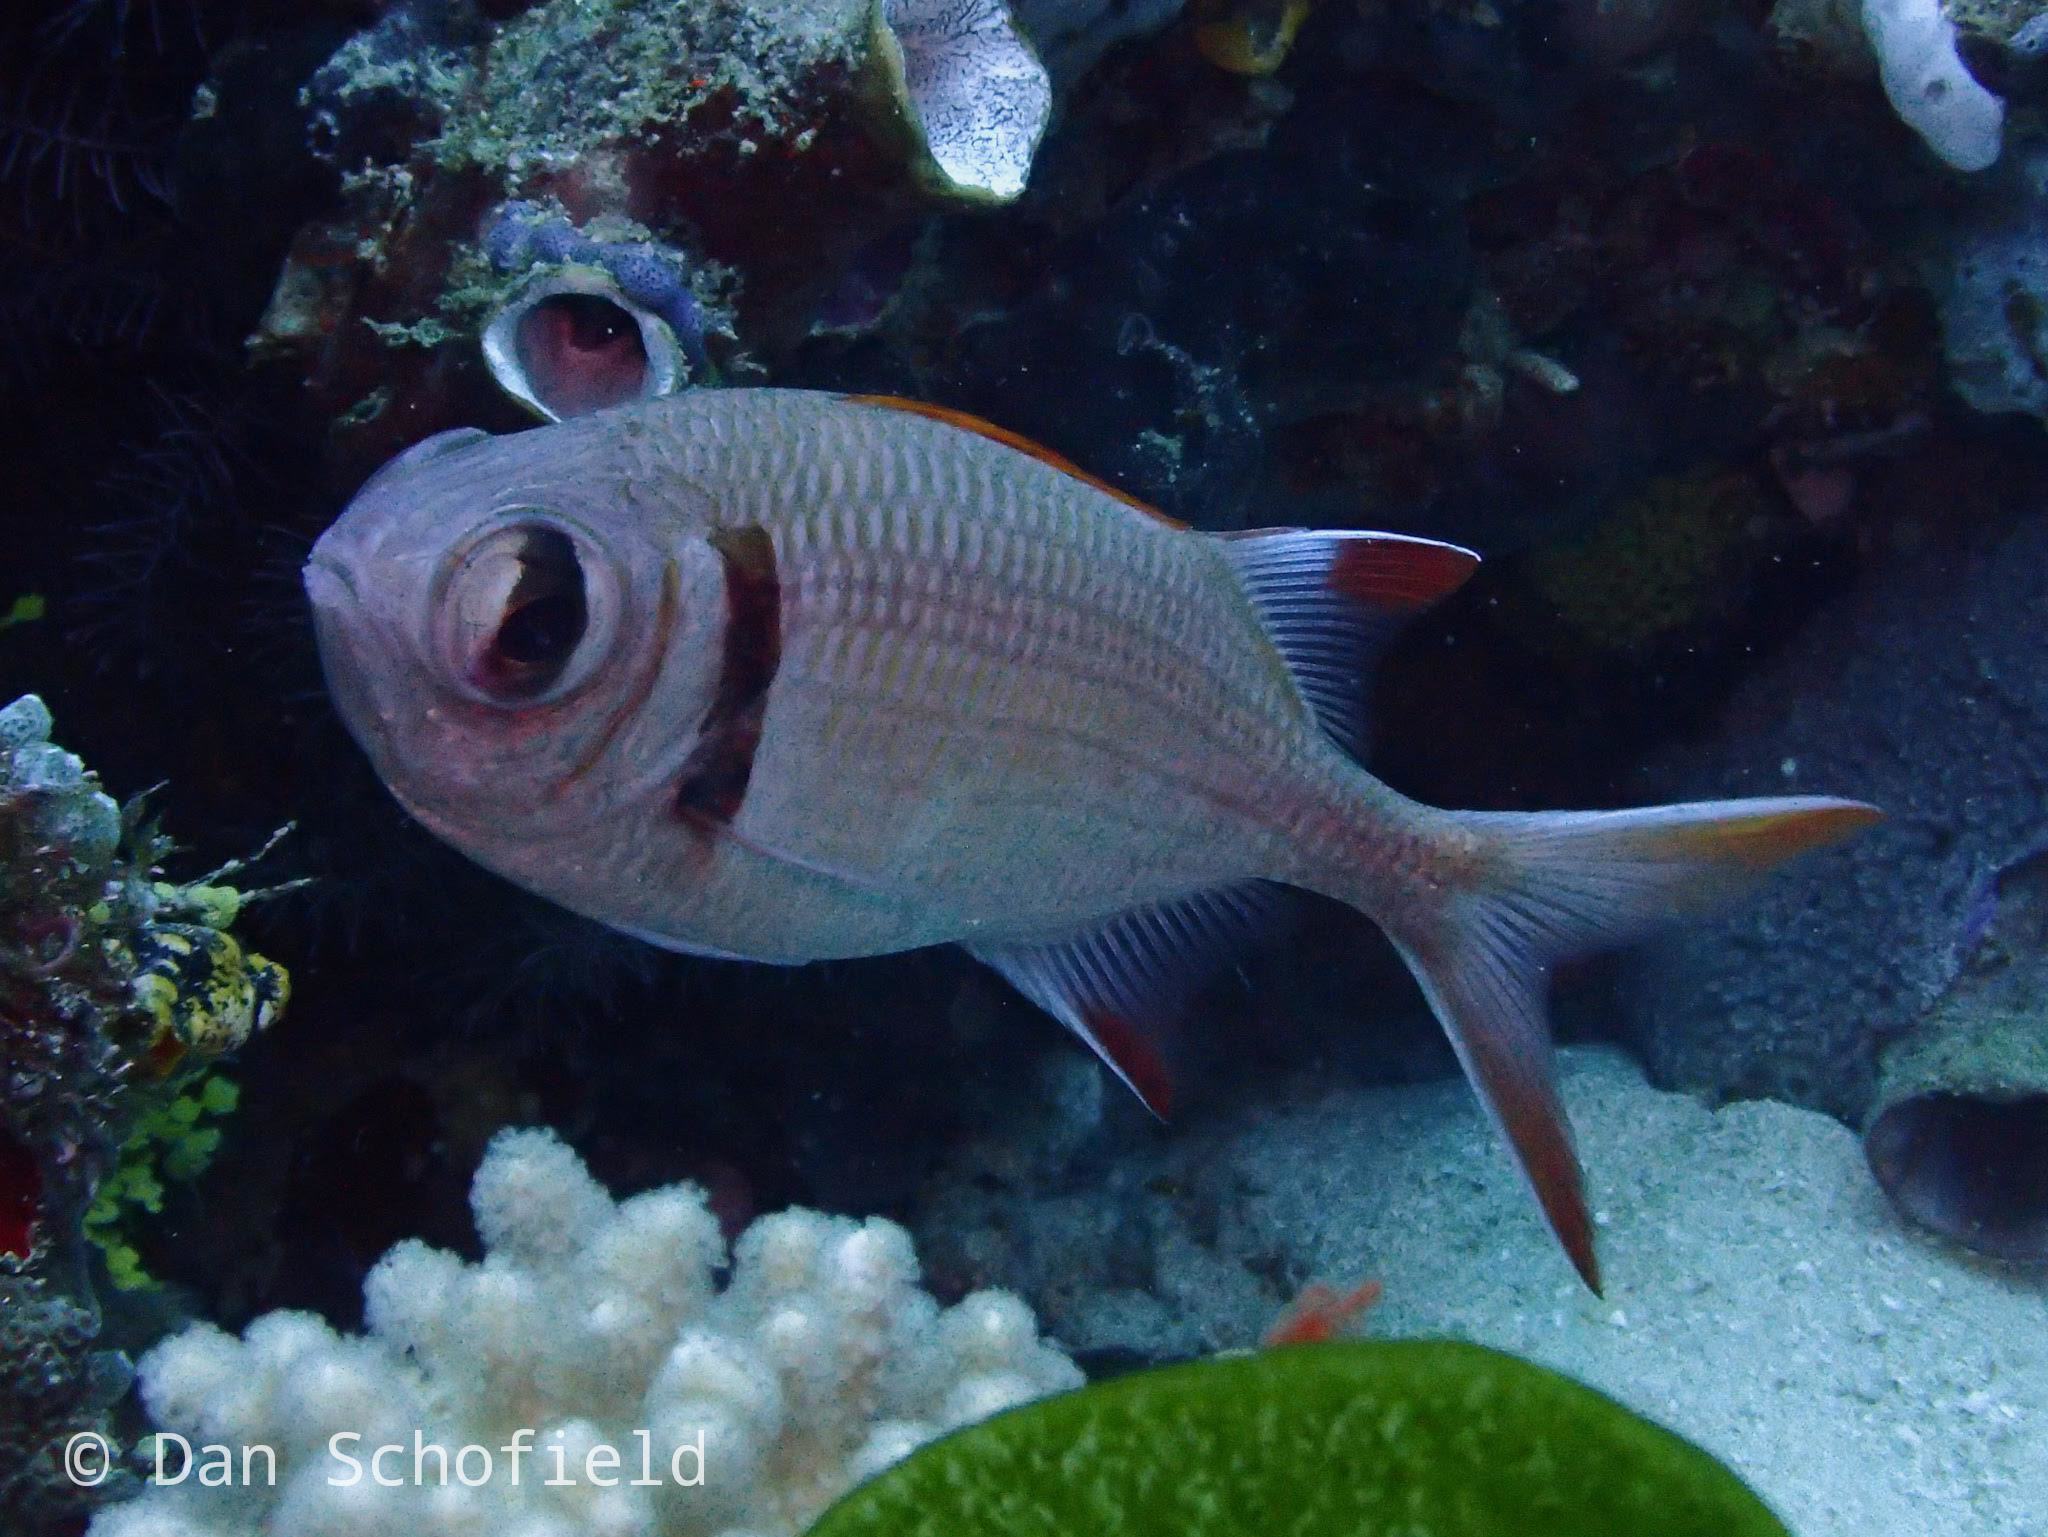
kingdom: Animalia
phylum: Chordata
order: Beryciformes
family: Holocentridae
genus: Myripristis
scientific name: Myripristis kuntee
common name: Epaulette soldierfish
